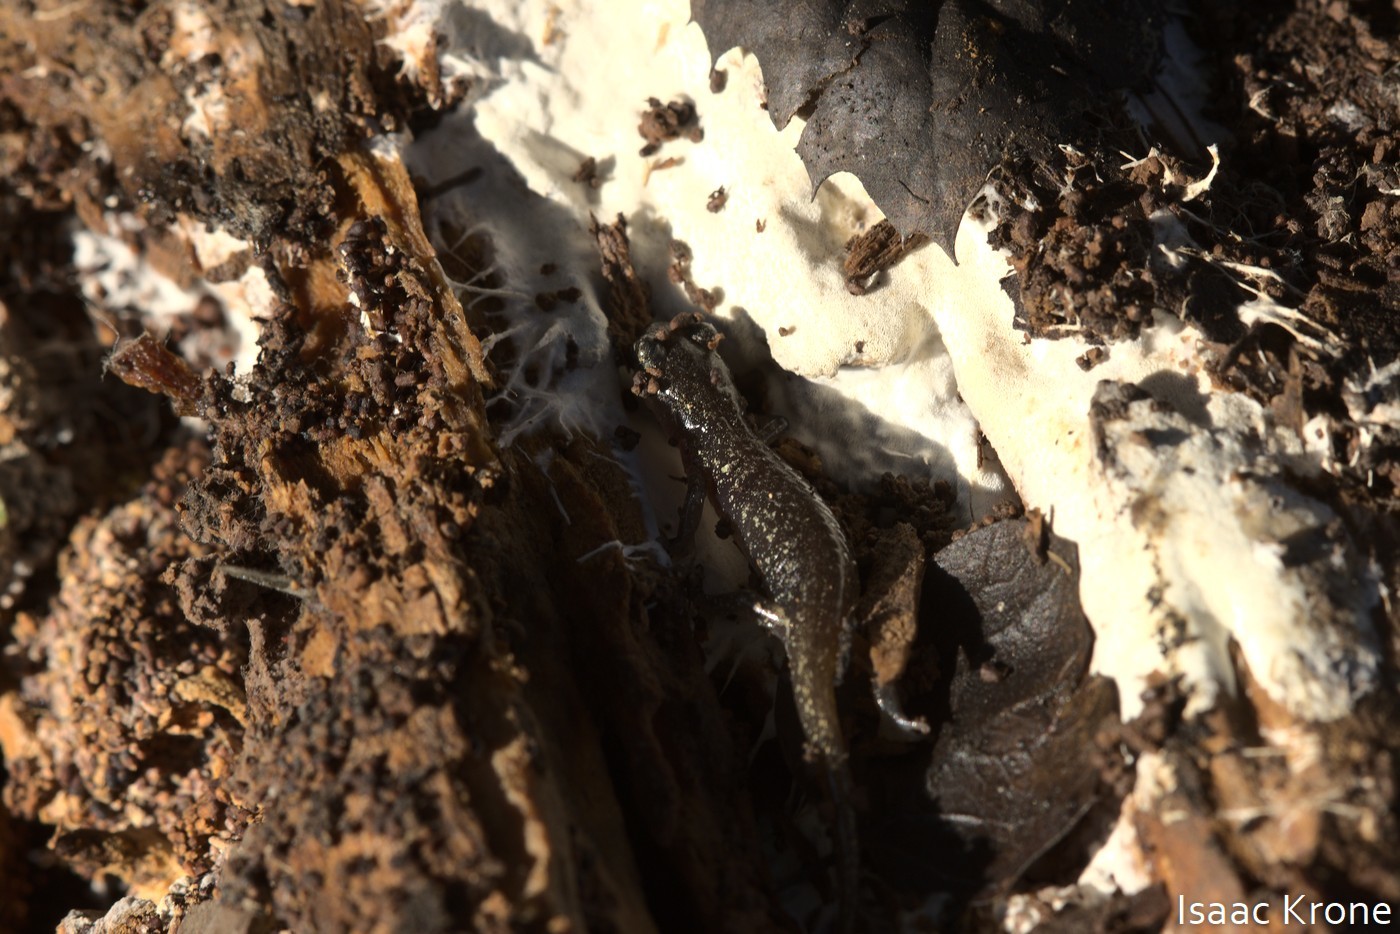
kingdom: Animalia
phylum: Chordata
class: Amphibia
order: Caudata
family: Plethodontidae
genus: Aneides
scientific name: Aneides lugubris
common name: Arboreal salamander
